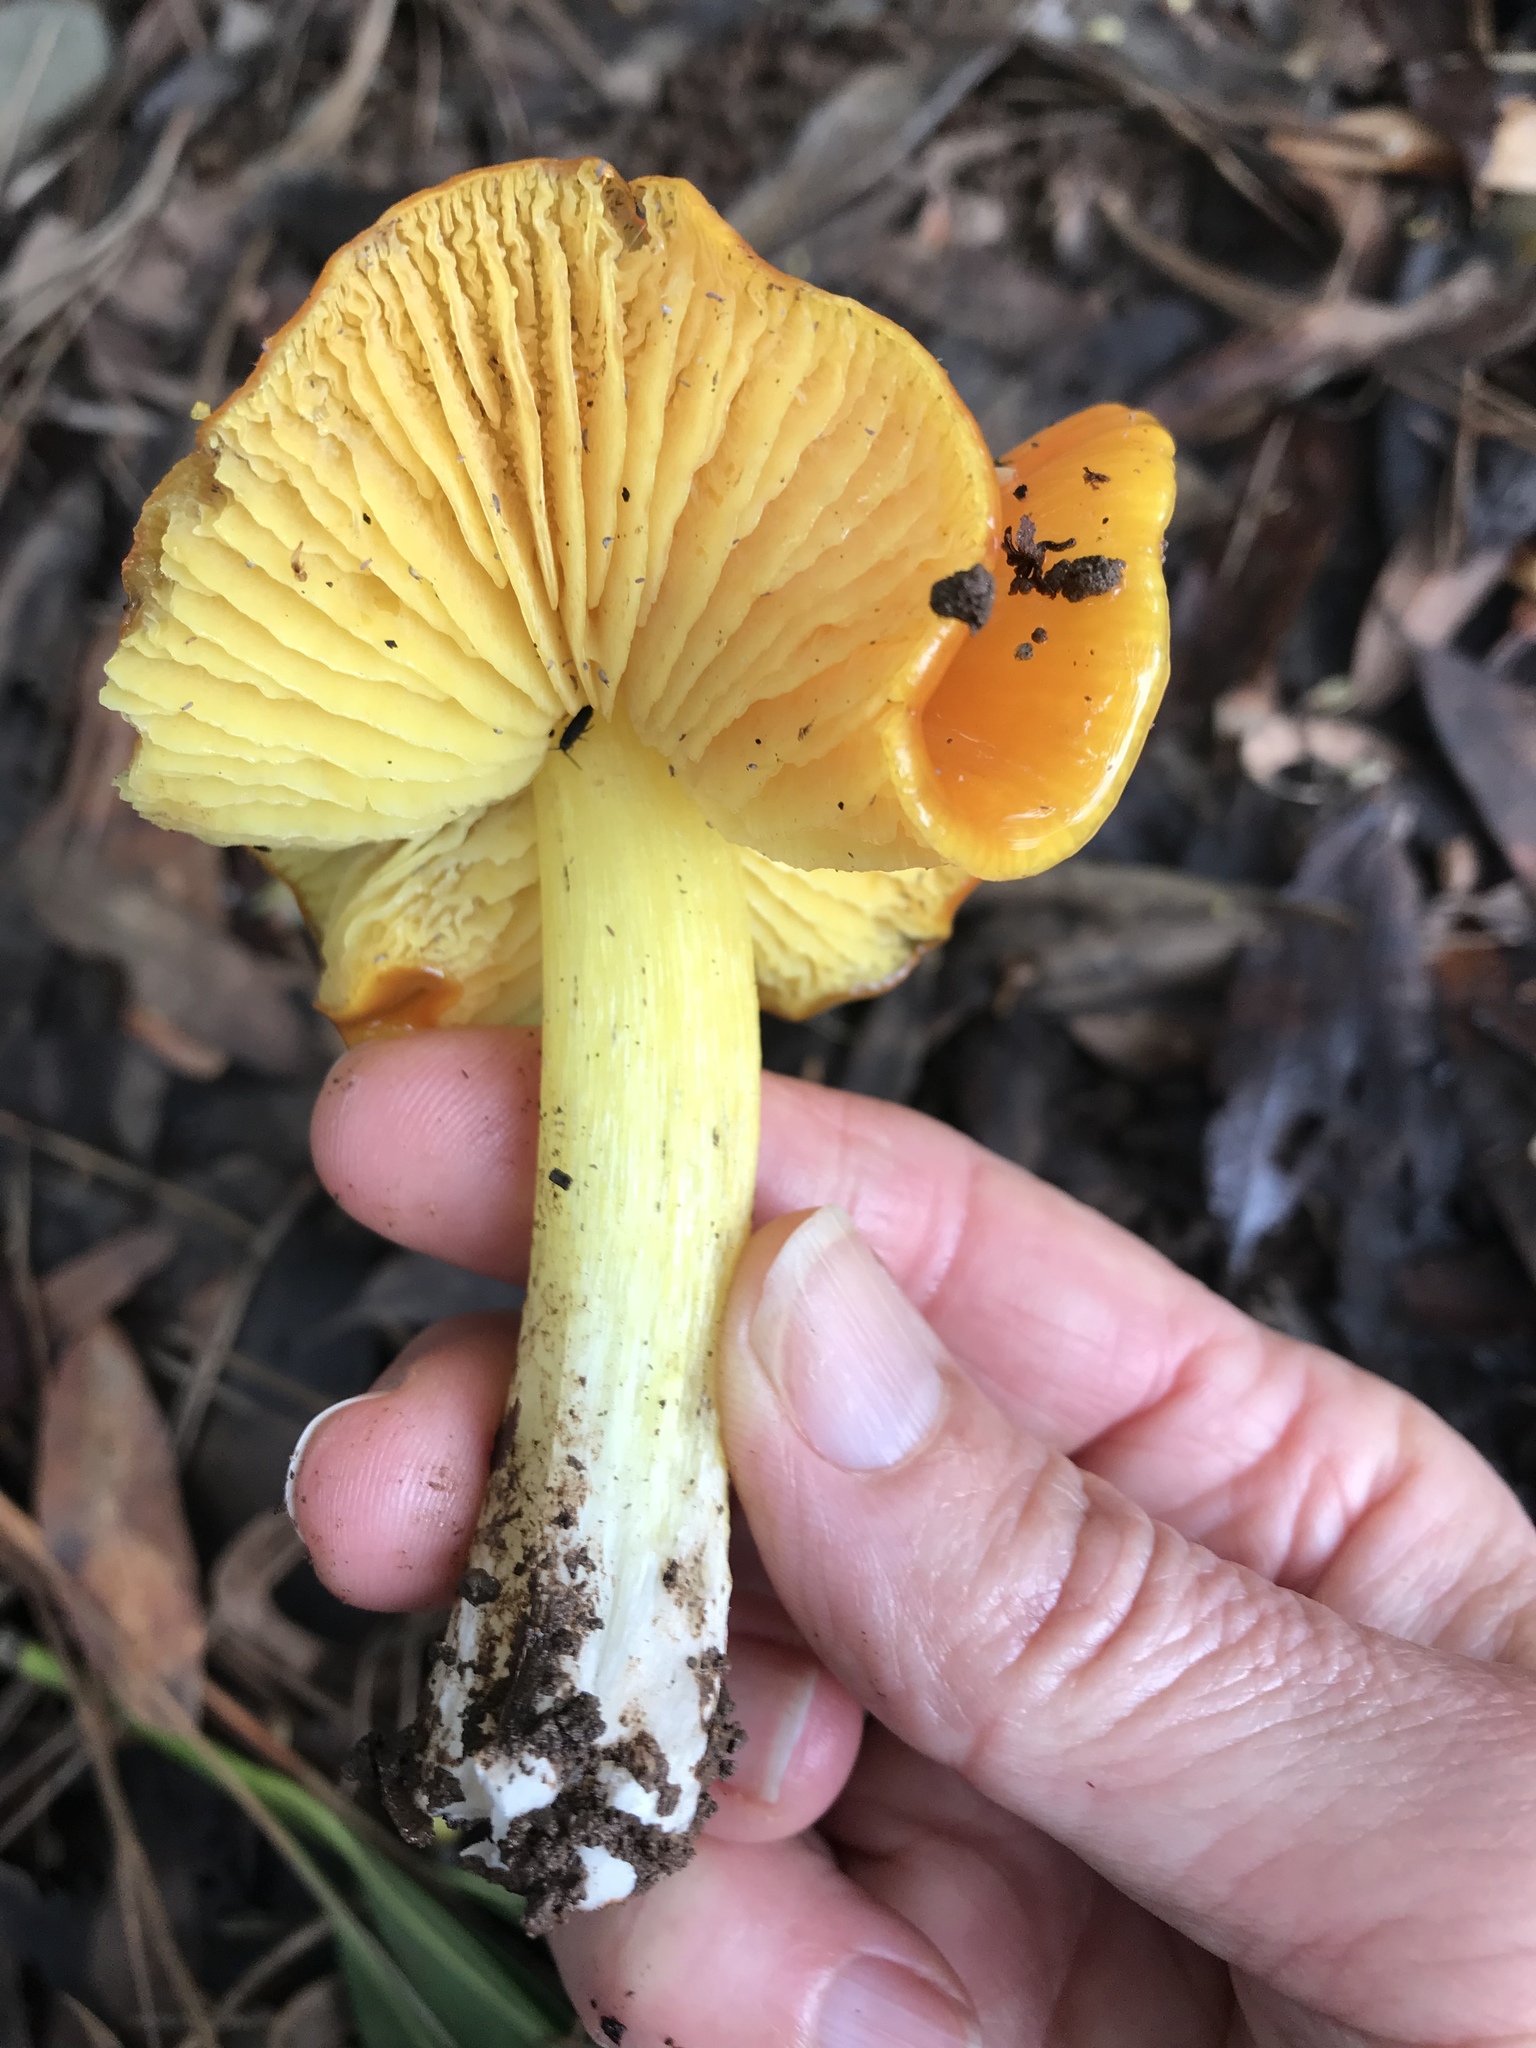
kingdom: Fungi
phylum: Basidiomycota
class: Agaricomycetes
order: Agaricales
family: Hygrophoraceae
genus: Hygrocybe
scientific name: Hygrocybe acutoconica
